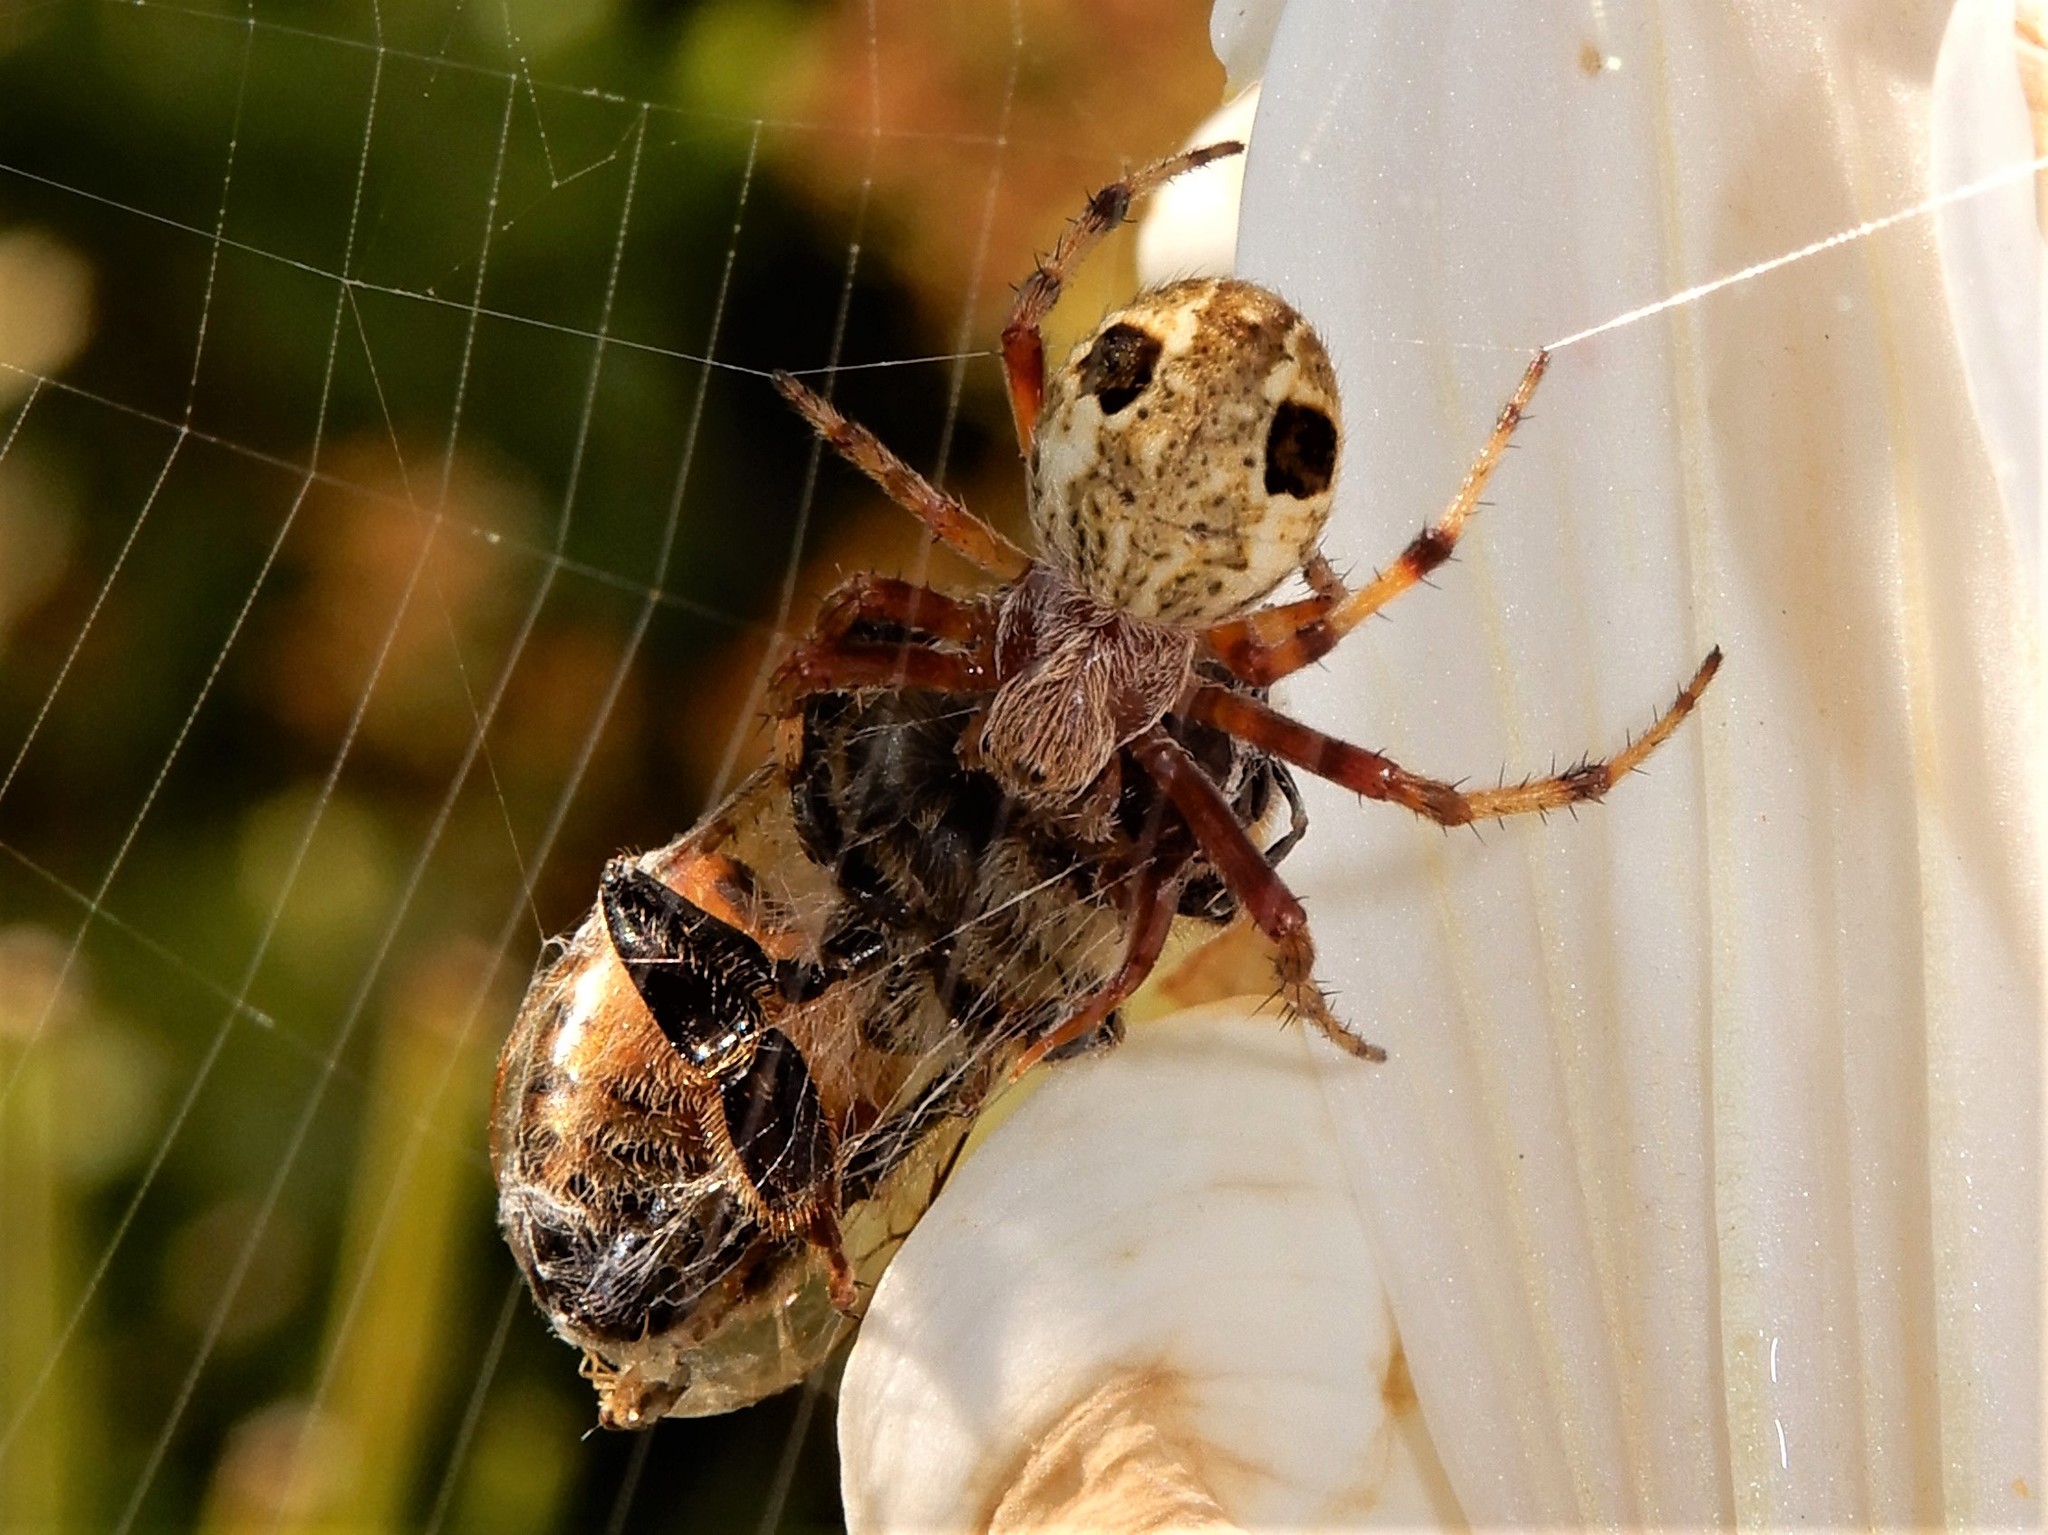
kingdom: Animalia
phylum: Arthropoda
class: Arachnida
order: Araneae
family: Araneidae
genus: Salsa
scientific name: Salsa fuliginata
